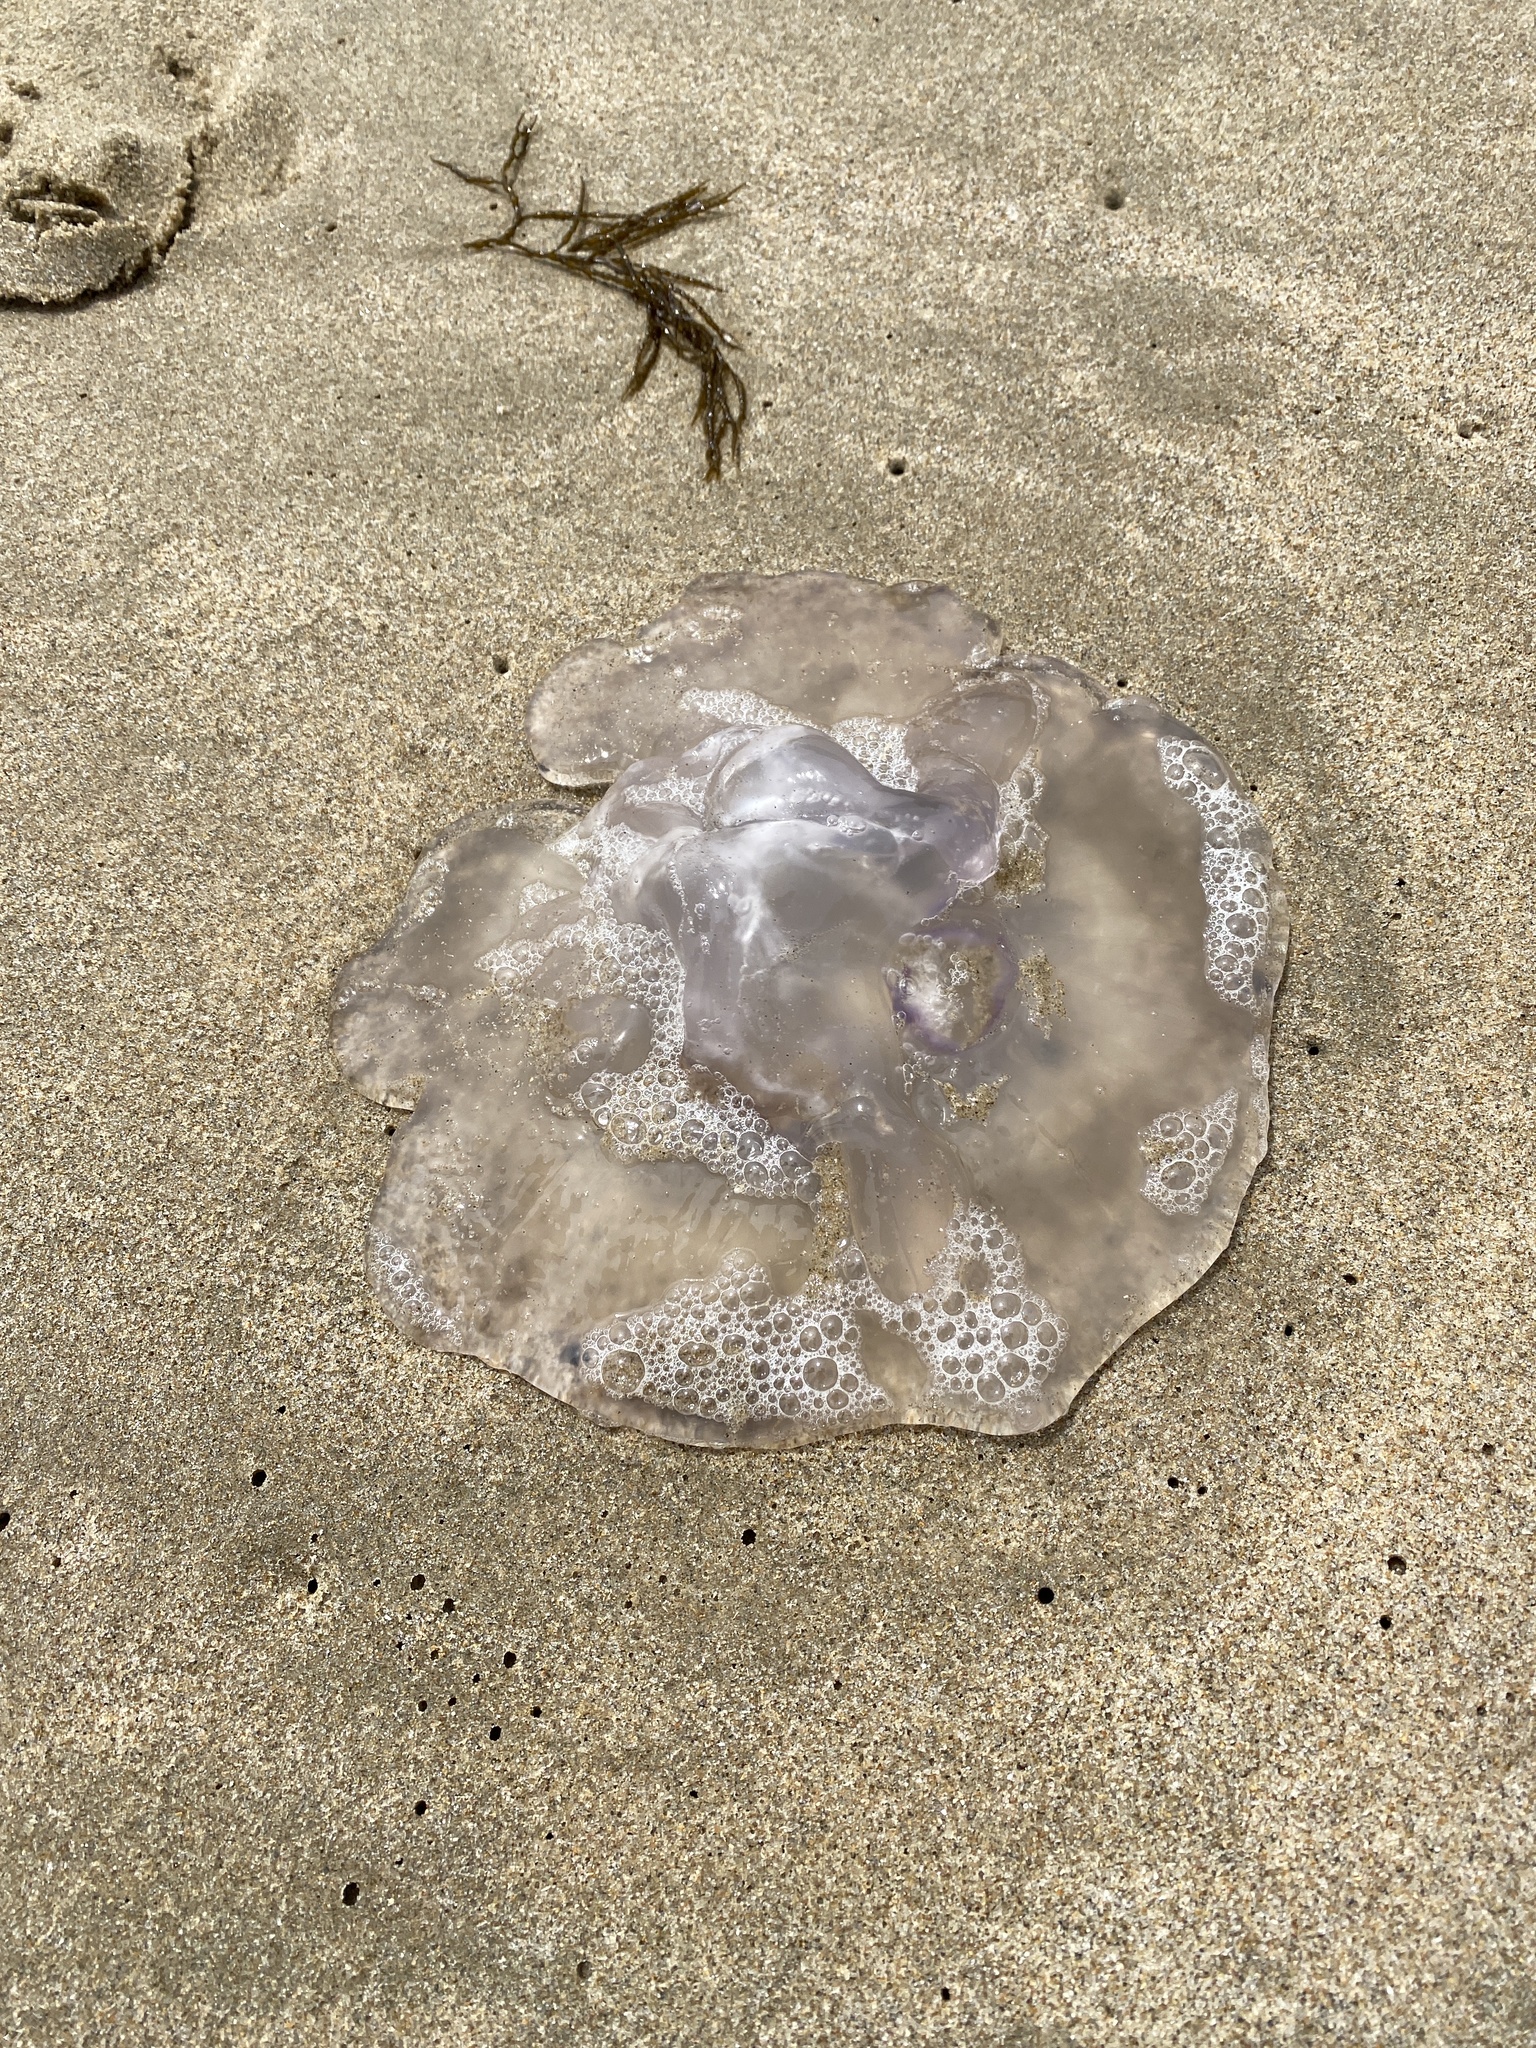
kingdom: Animalia
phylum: Cnidaria
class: Scyphozoa
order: Semaeostomeae
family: Ulmaridae
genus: Aurelia
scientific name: Aurelia labiata
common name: Pacific moon jelly
